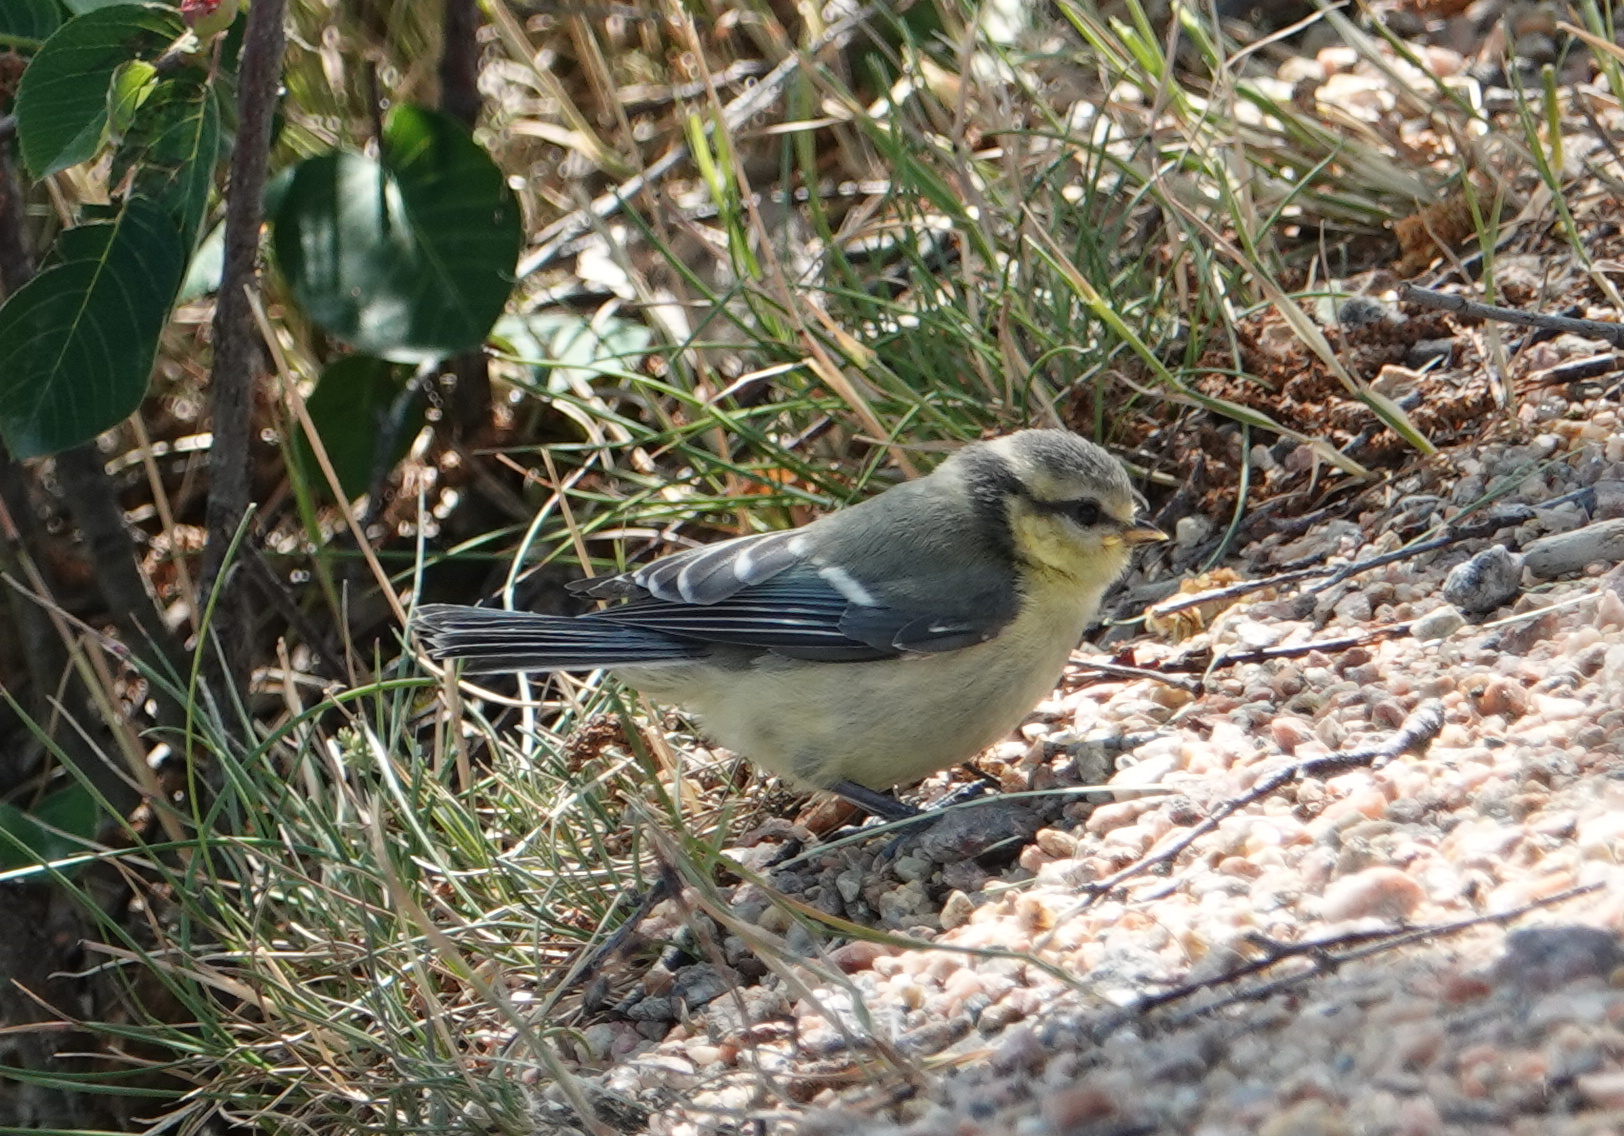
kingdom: Animalia
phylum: Chordata
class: Aves
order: Passeriformes
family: Paridae
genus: Cyanistes
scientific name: Cyanistes caeruleus
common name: Eurasian blue tit
